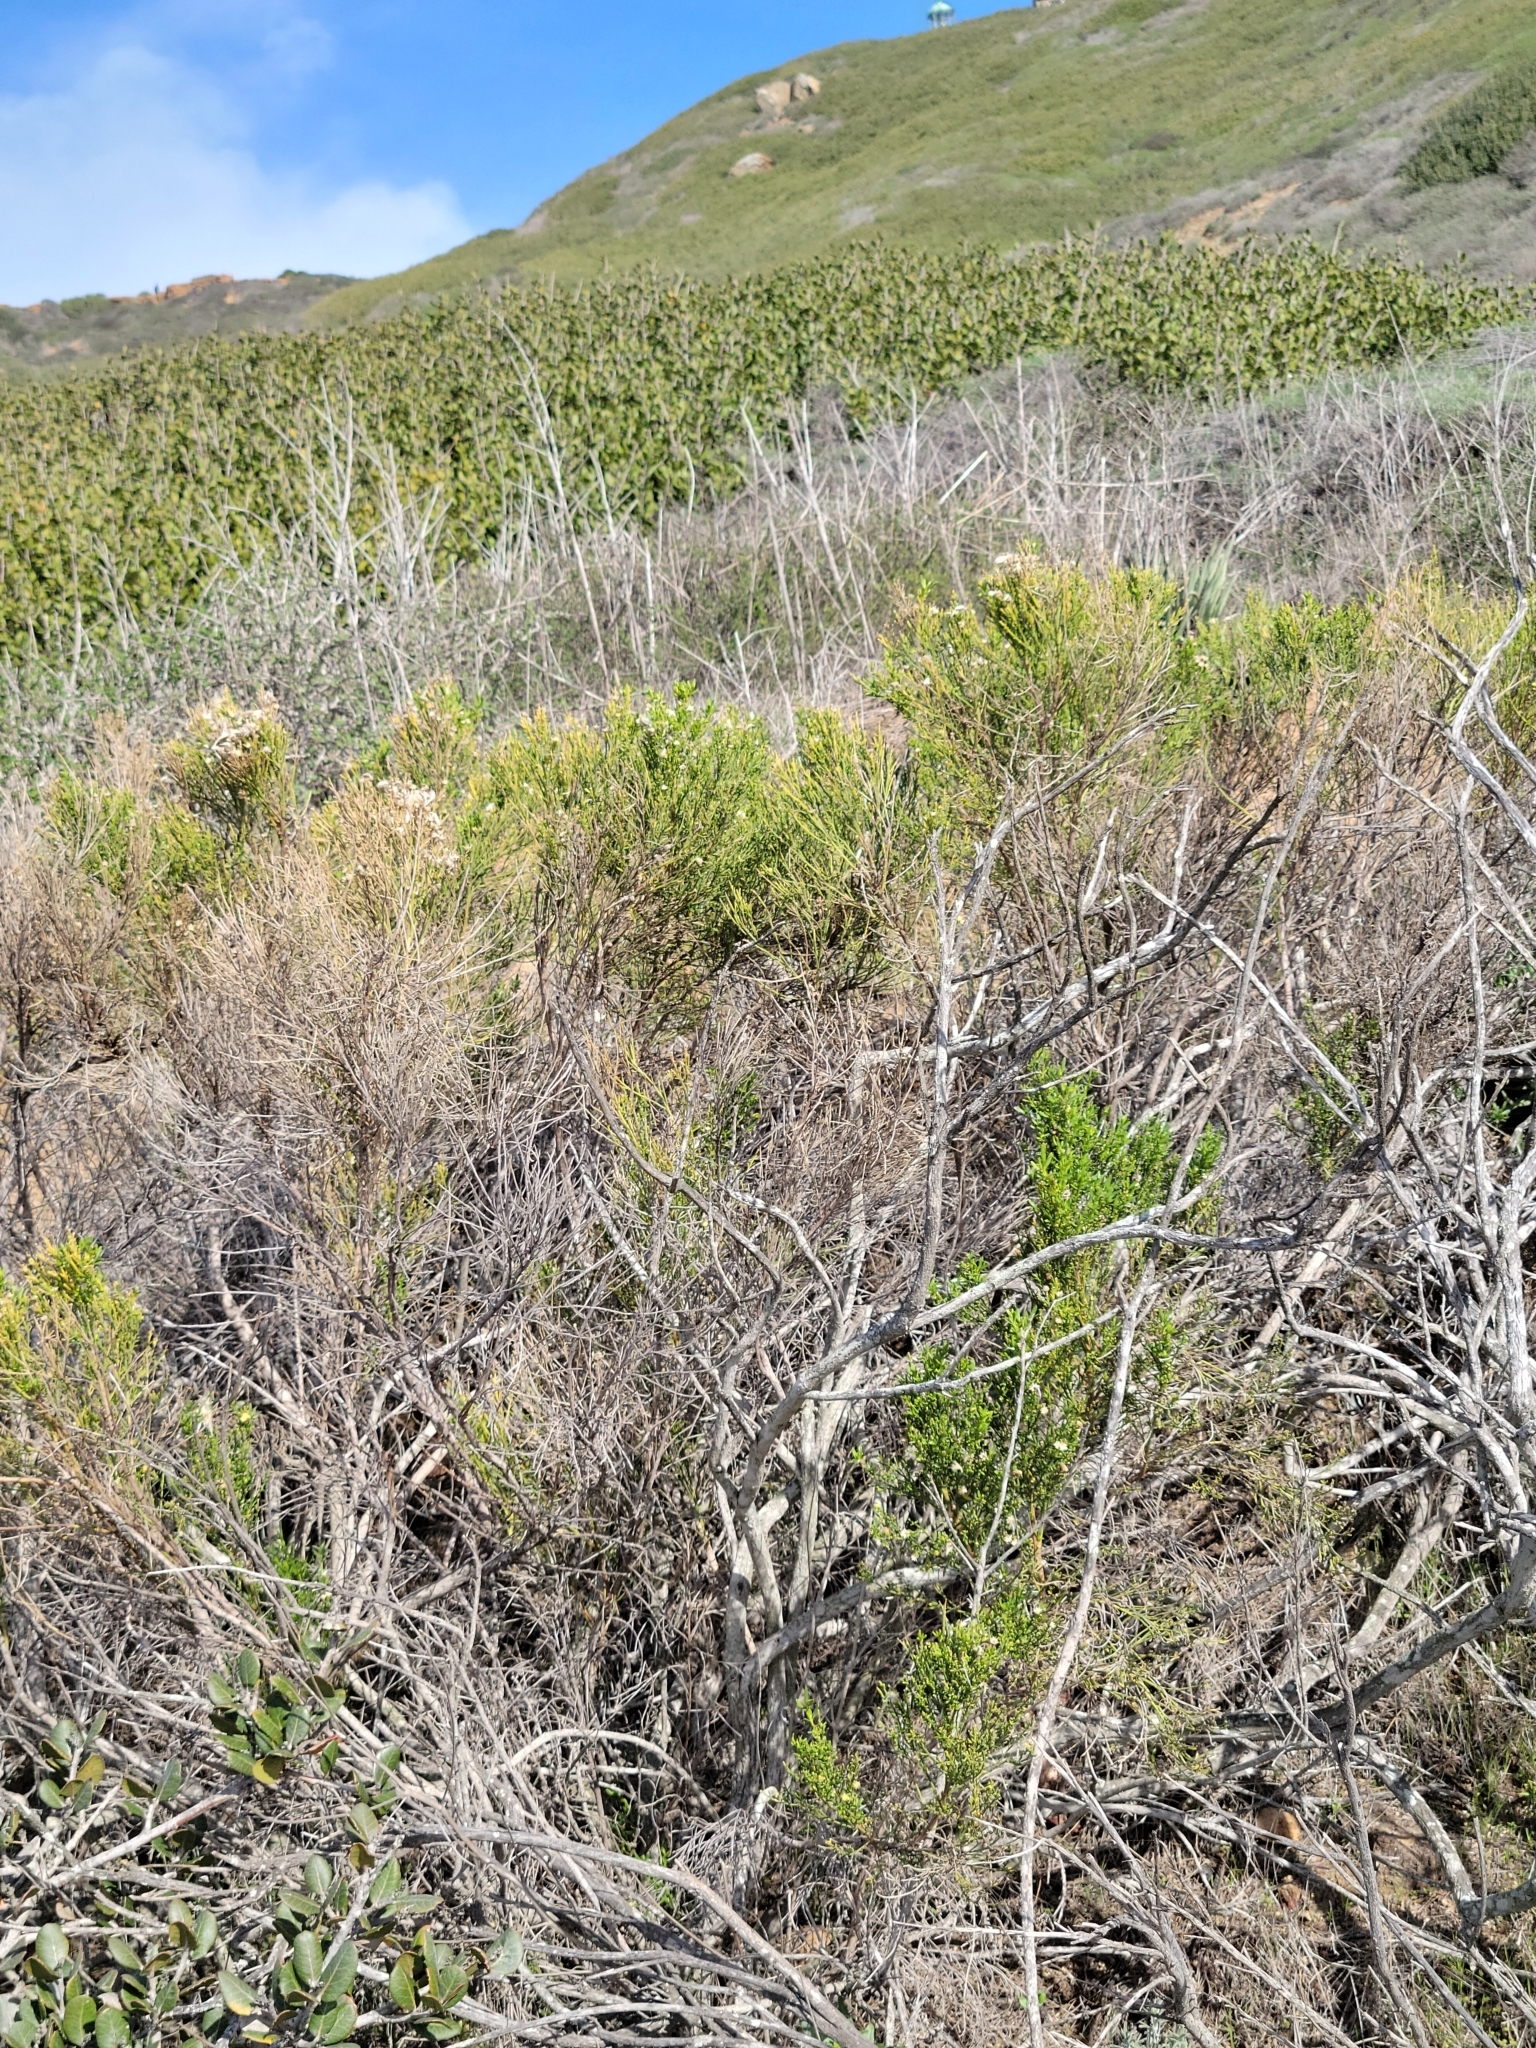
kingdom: Plantae
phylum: Tracheophyta
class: Magnoliopsida
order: Asterales
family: Asteraceae
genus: Baccharis
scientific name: Baccharis sarothroides
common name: Desert-broom
